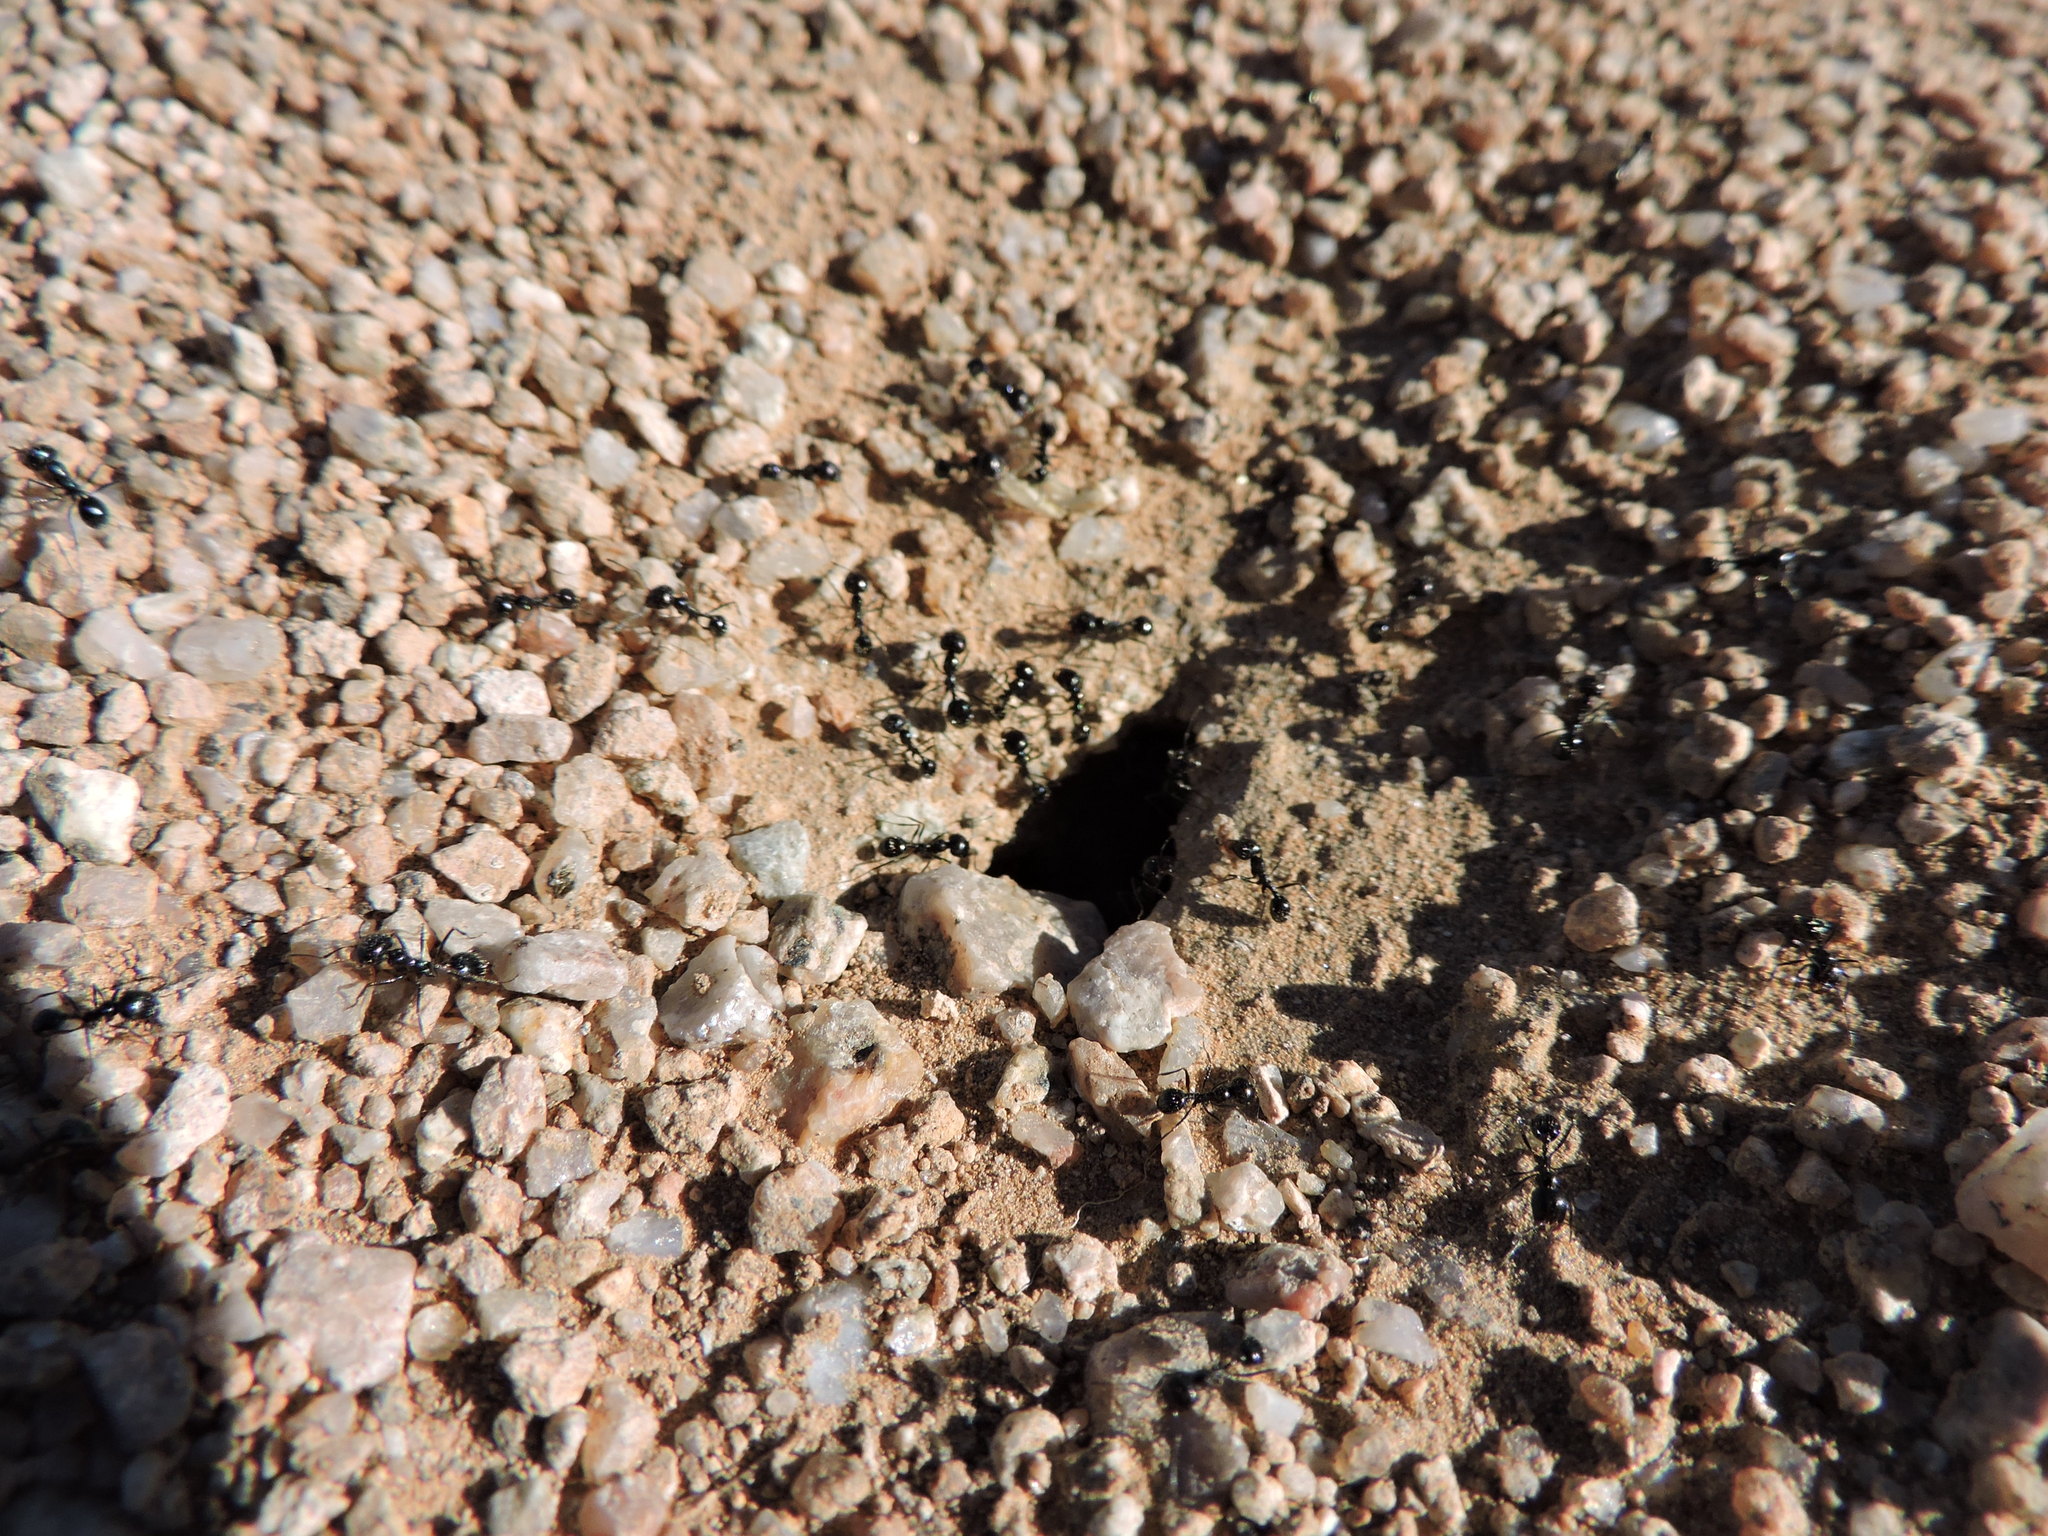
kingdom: Animalia
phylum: Arthropoda
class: Insecta
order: Hymenoptera
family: Formicidae
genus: Messor
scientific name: Messor pergandei
